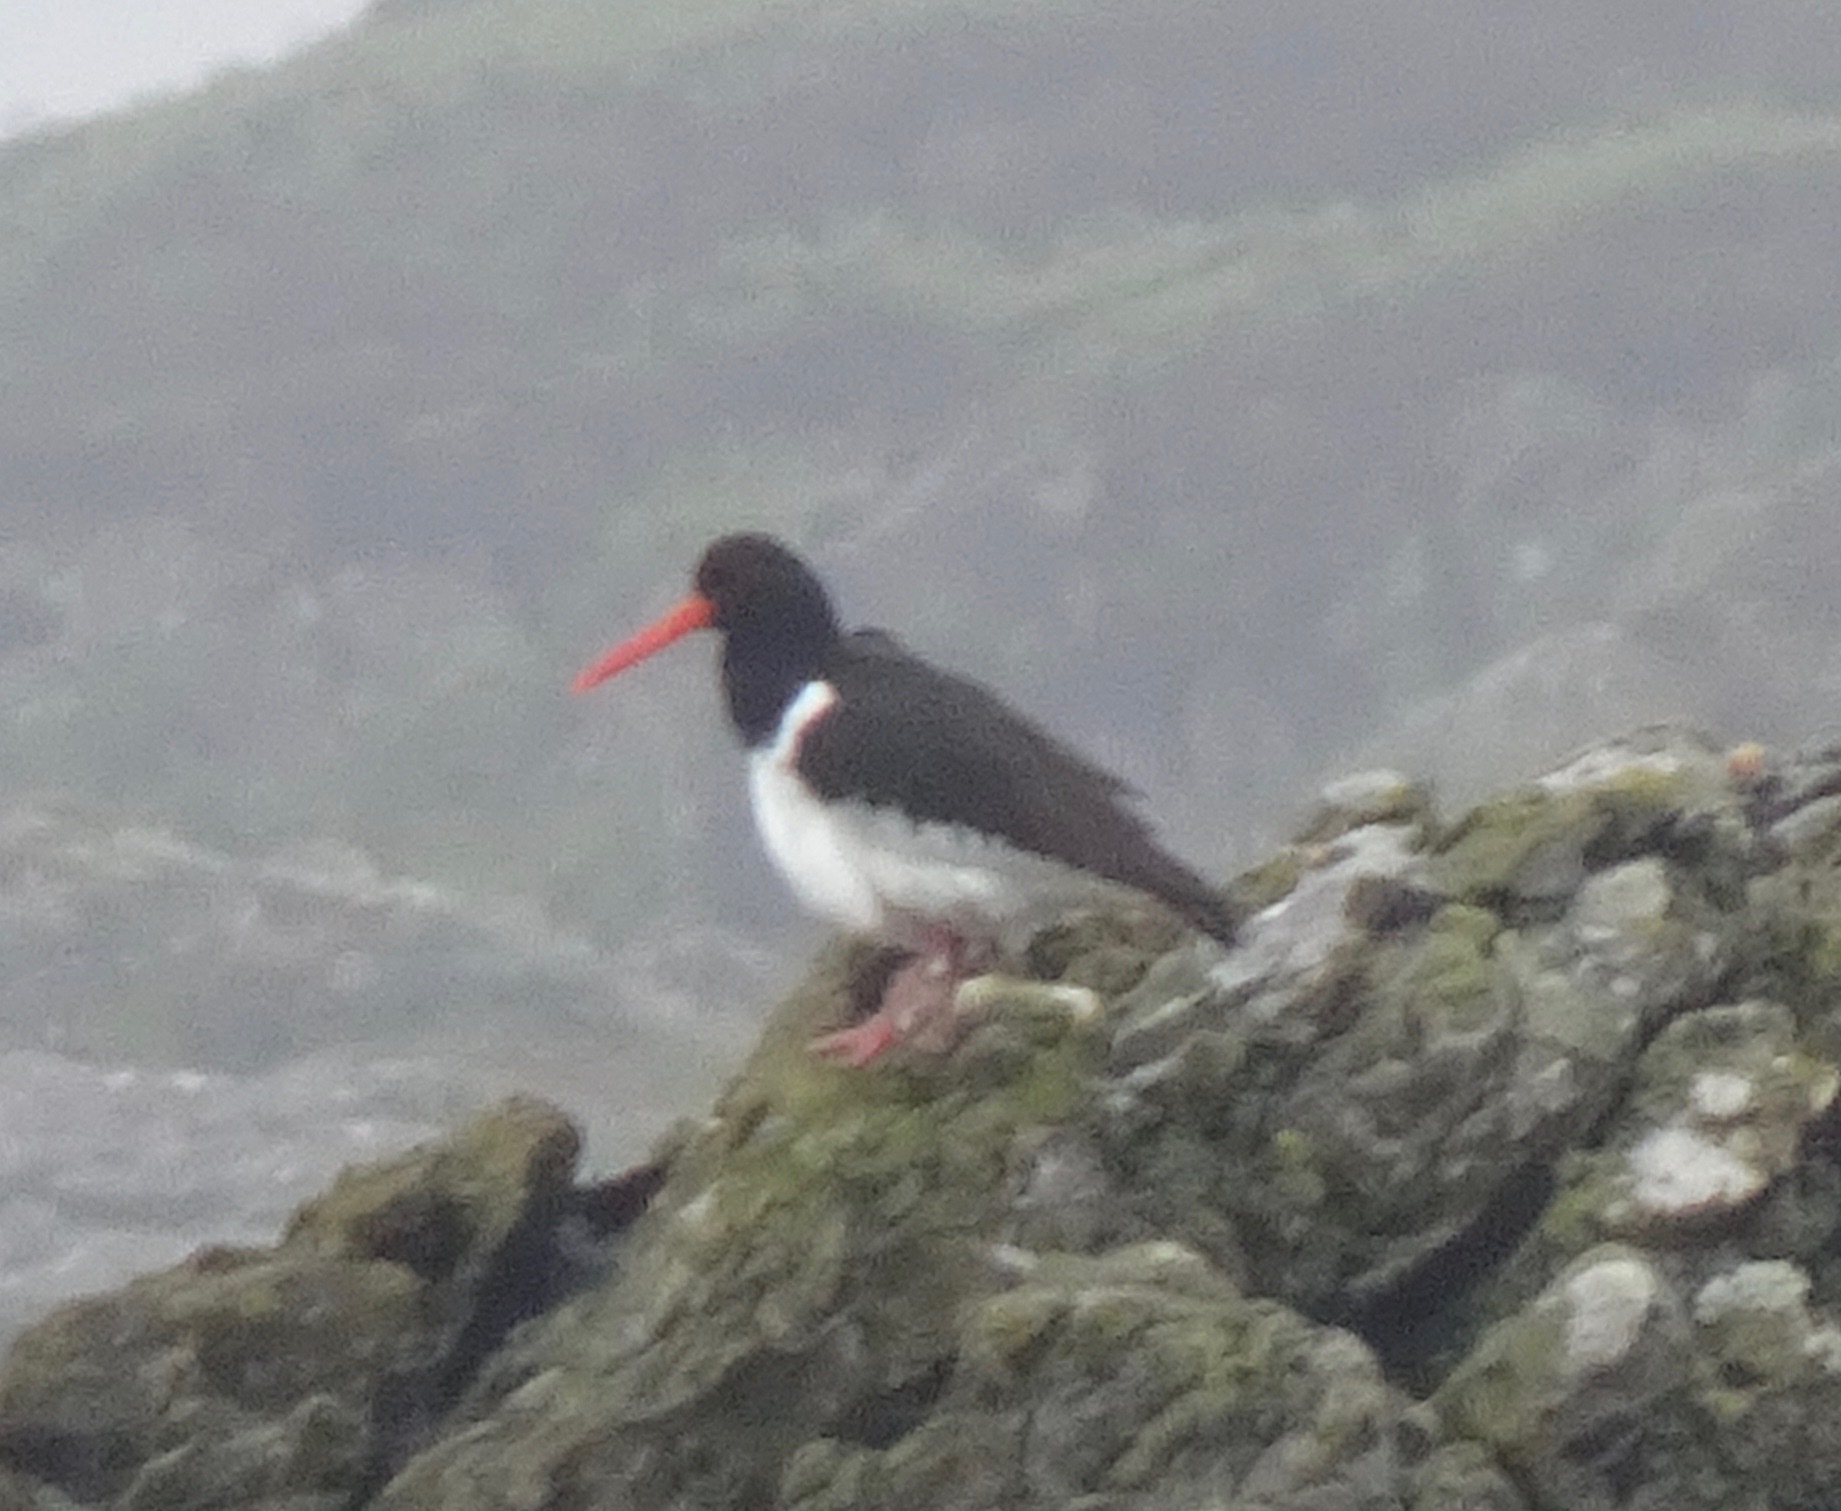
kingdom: Animalia
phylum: Chordata
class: Aves
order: Charadriiformes
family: Haematopodidae
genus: Haematopus
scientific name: Haematopus ostralegus
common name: Eurasian oystercatcher
